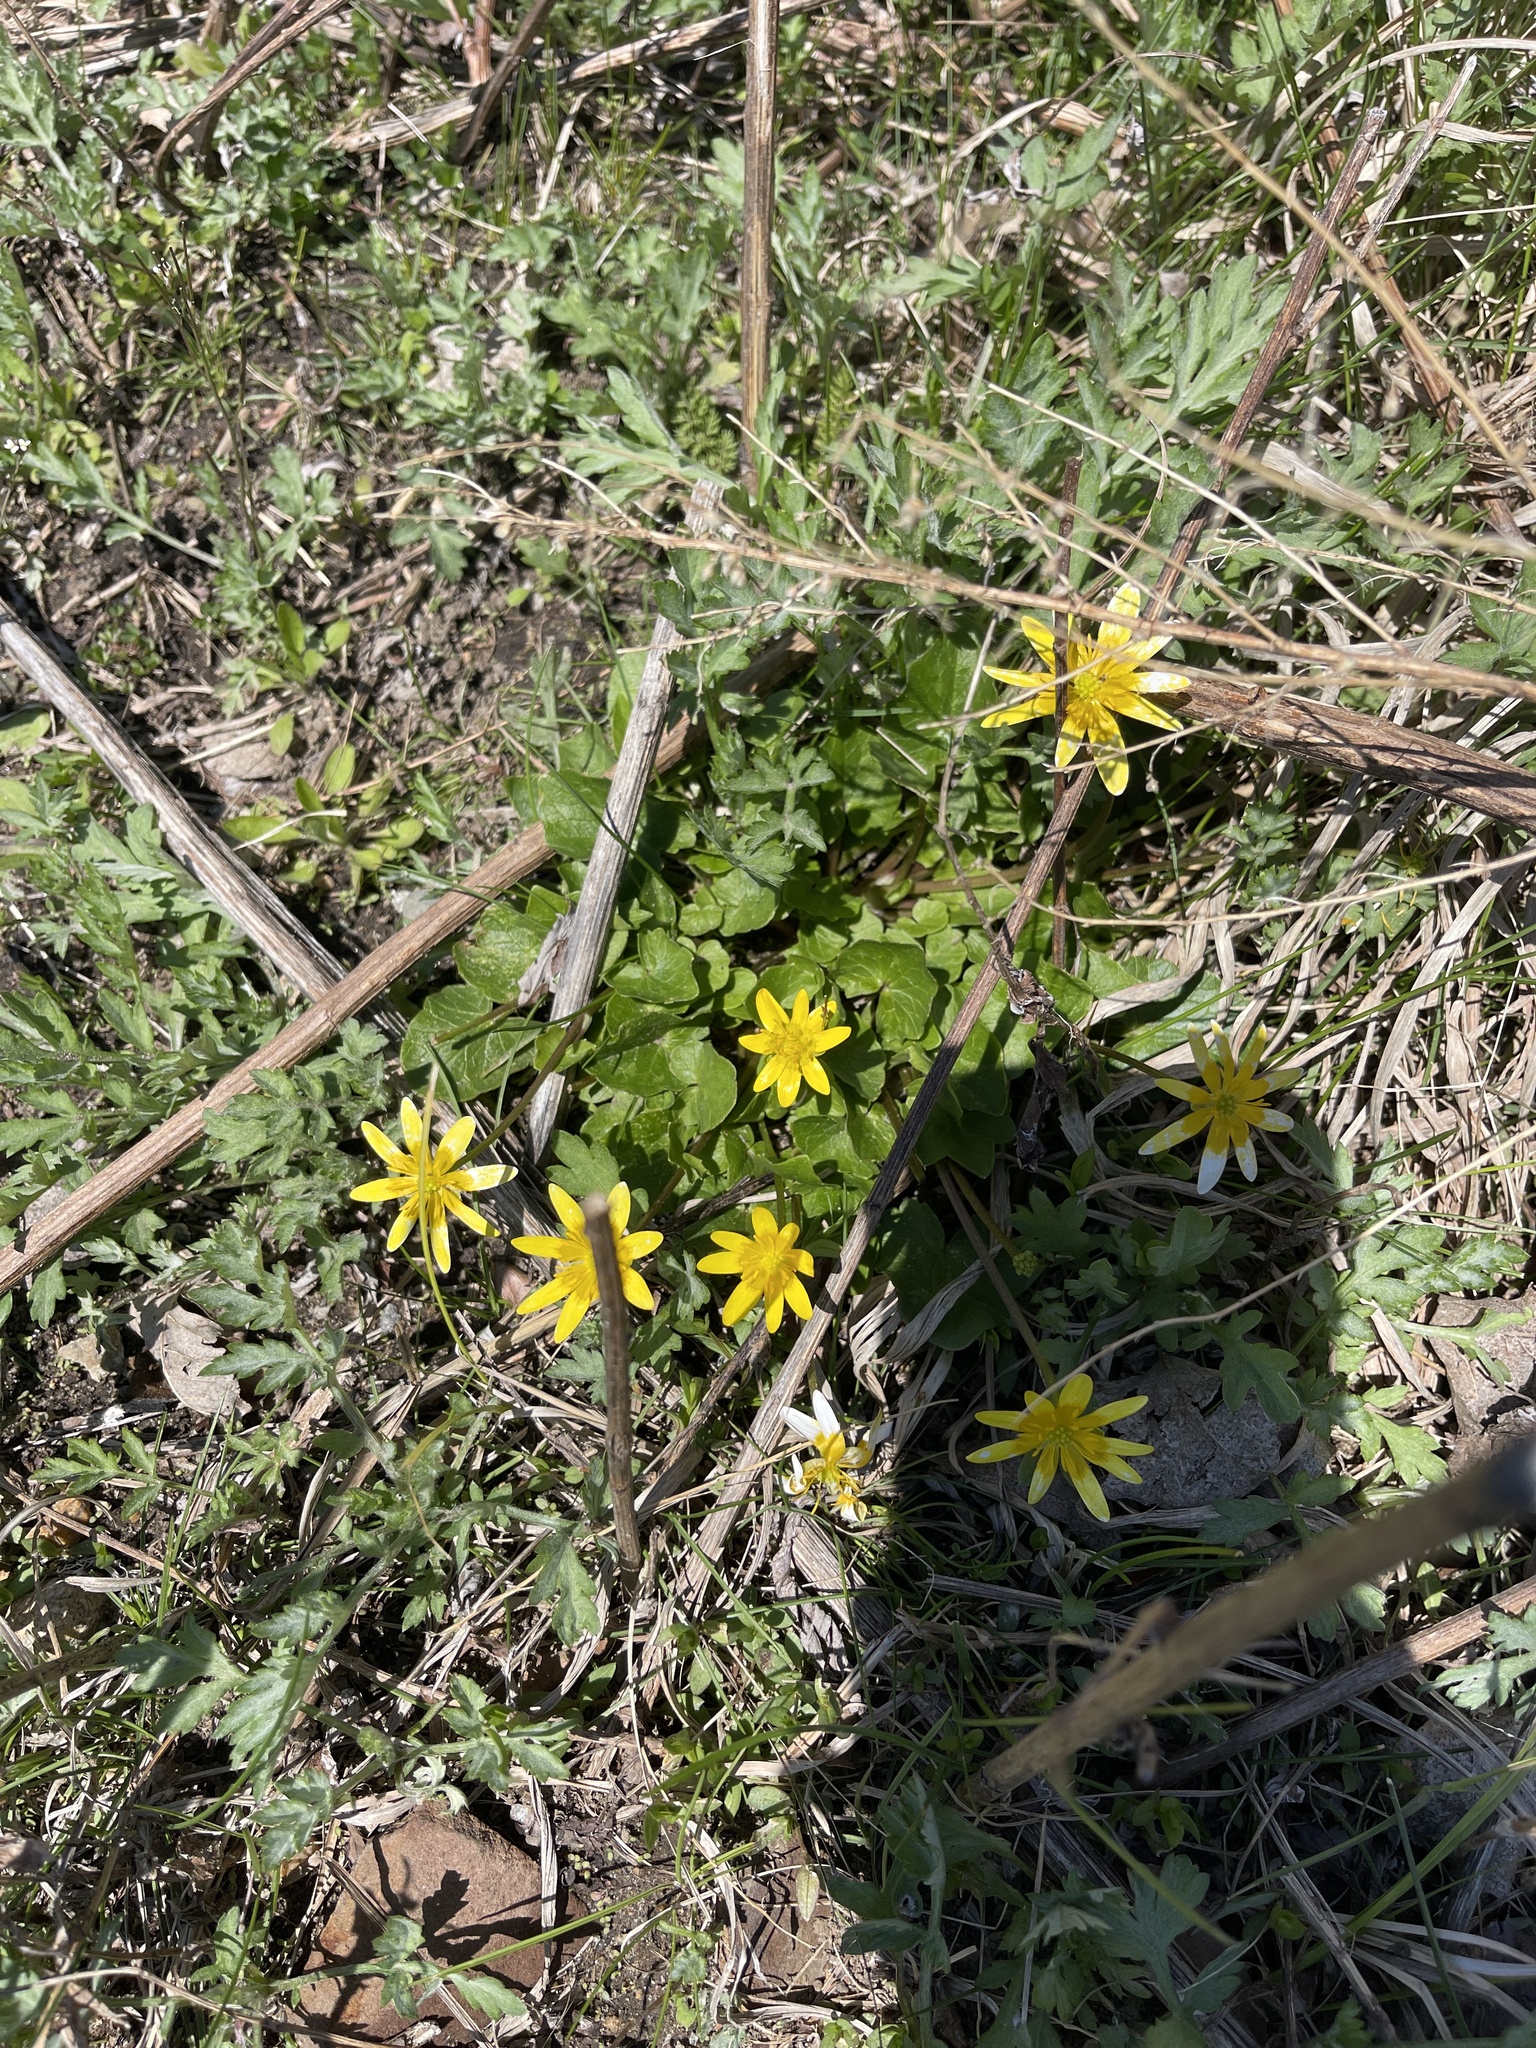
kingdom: Plantae
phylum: Tracheophyta
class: Magnoliopsida
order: Ranunculales
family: Ranunculaceae
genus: Ficaria
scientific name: Ficaria verna
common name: Lesser celandine
